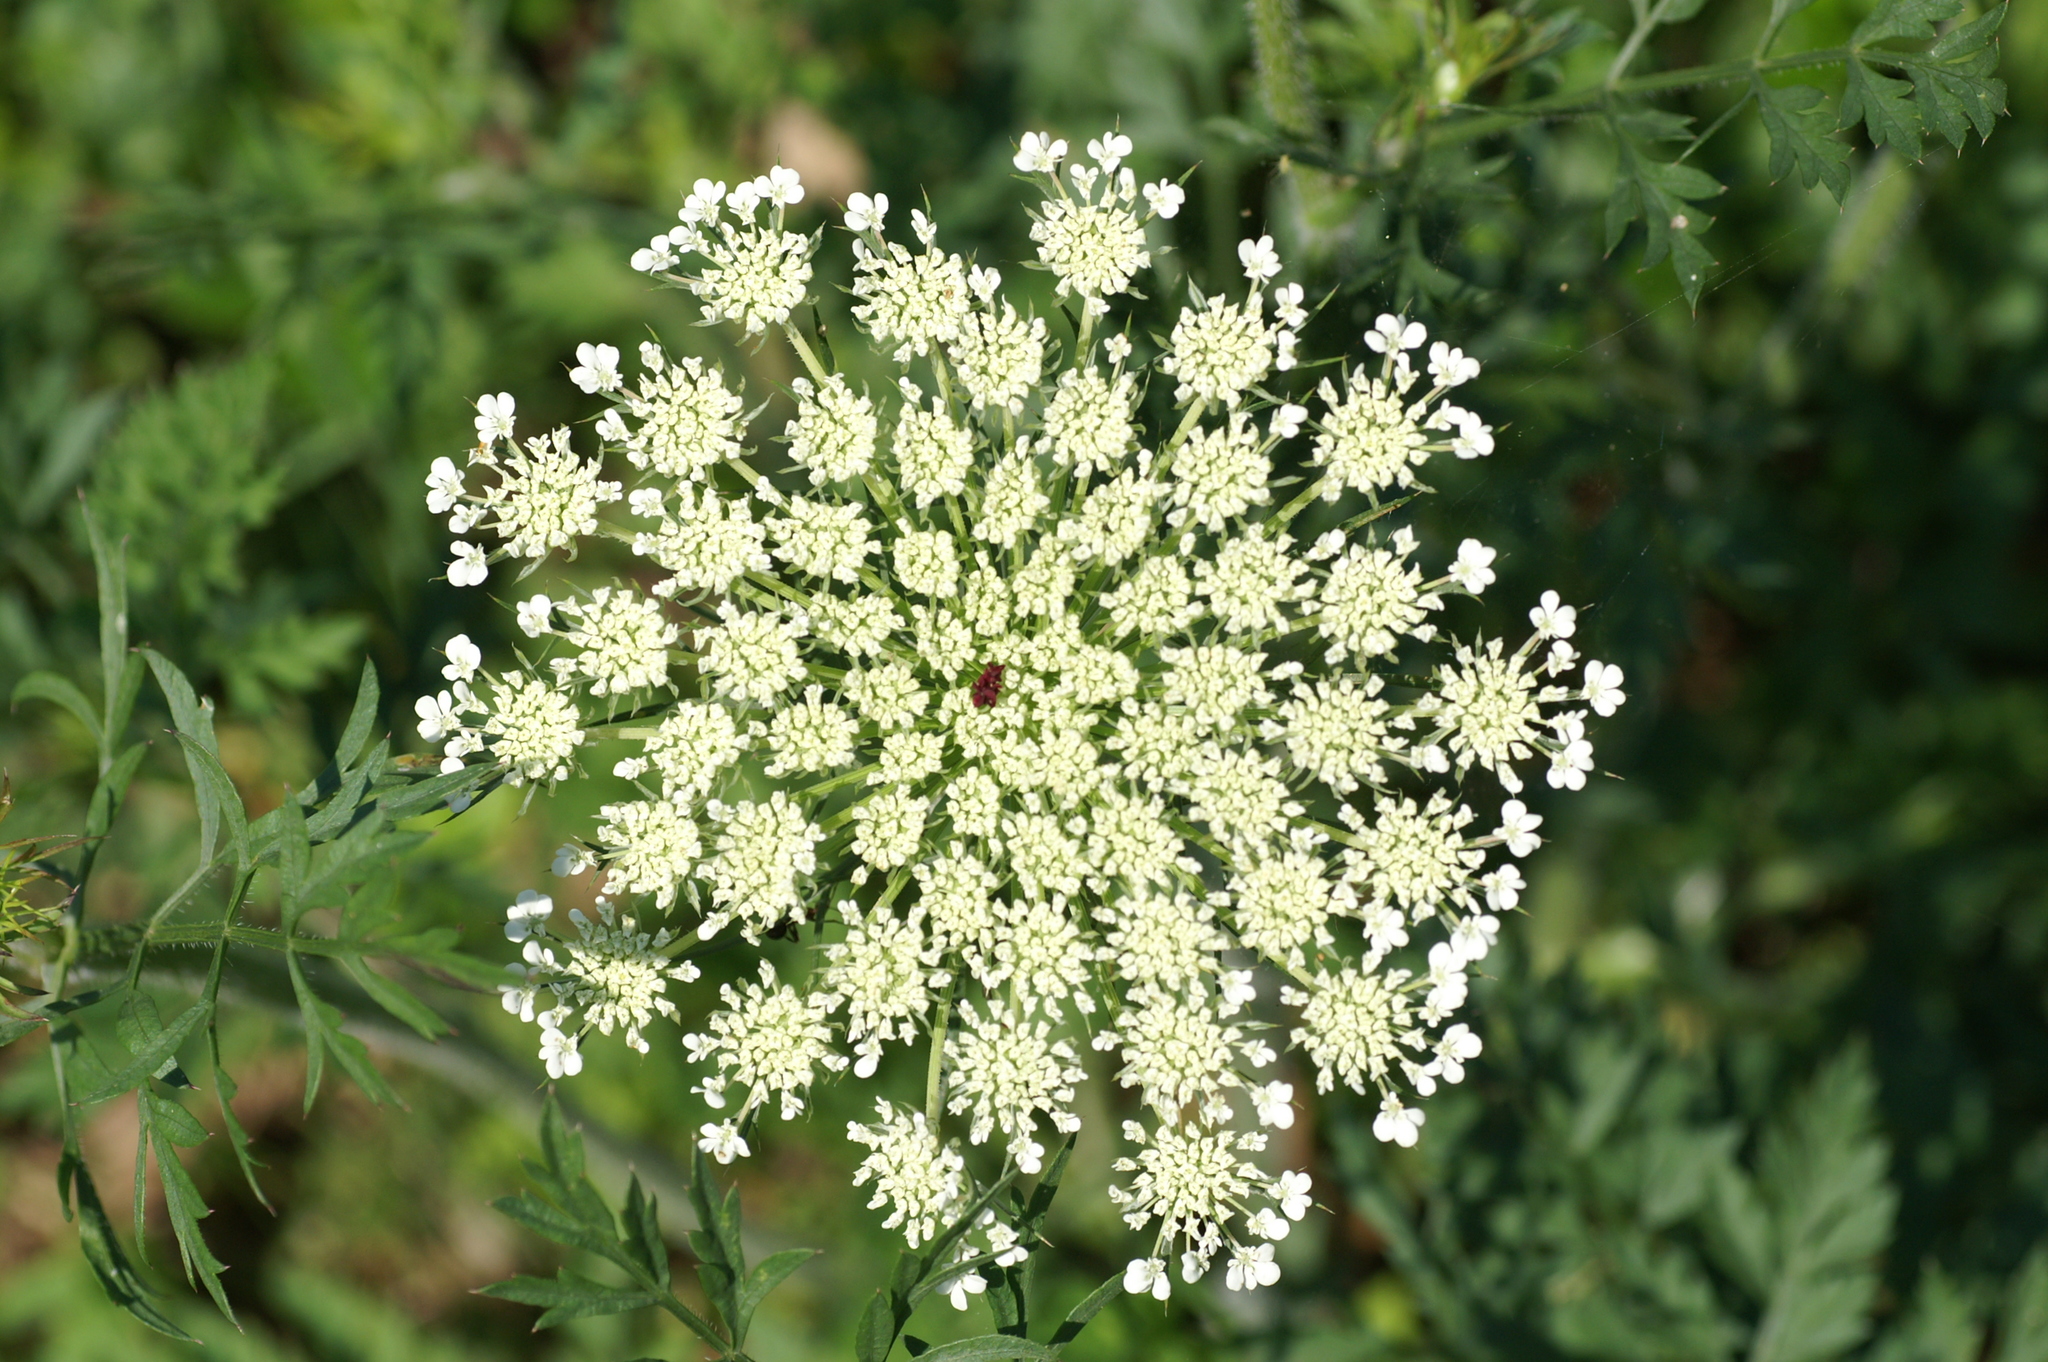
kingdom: Plantae
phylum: Tracheophyta
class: Magnoliopsida
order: Apiales
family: Apiaceae
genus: Daucus
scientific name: Daucus carota
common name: Wild carrot
